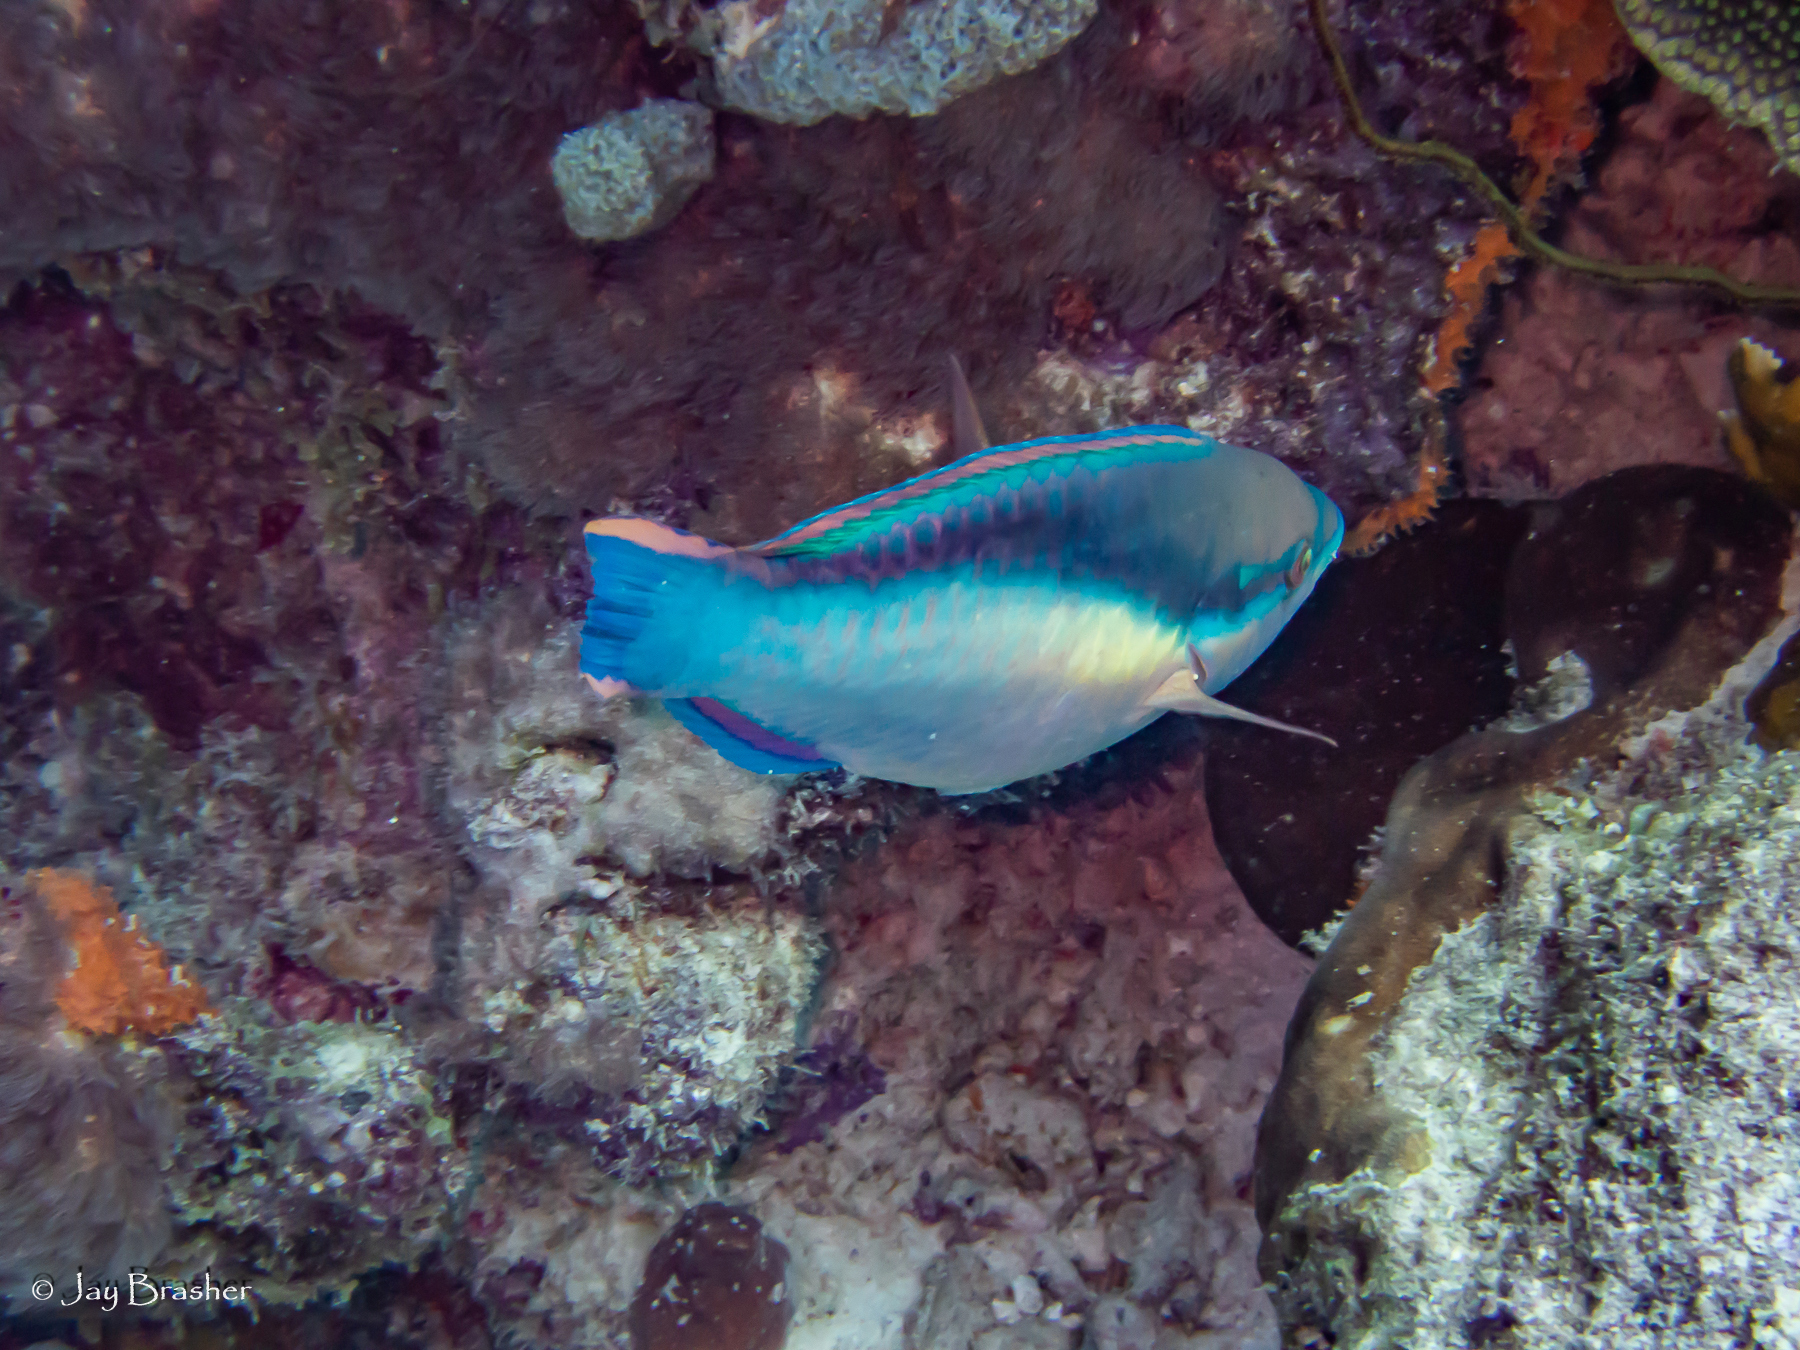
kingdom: Animalia
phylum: Chordata
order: Perciformes
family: Scaridae
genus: Scarus
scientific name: Scarus taeniopterus
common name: Princess parrotfish
